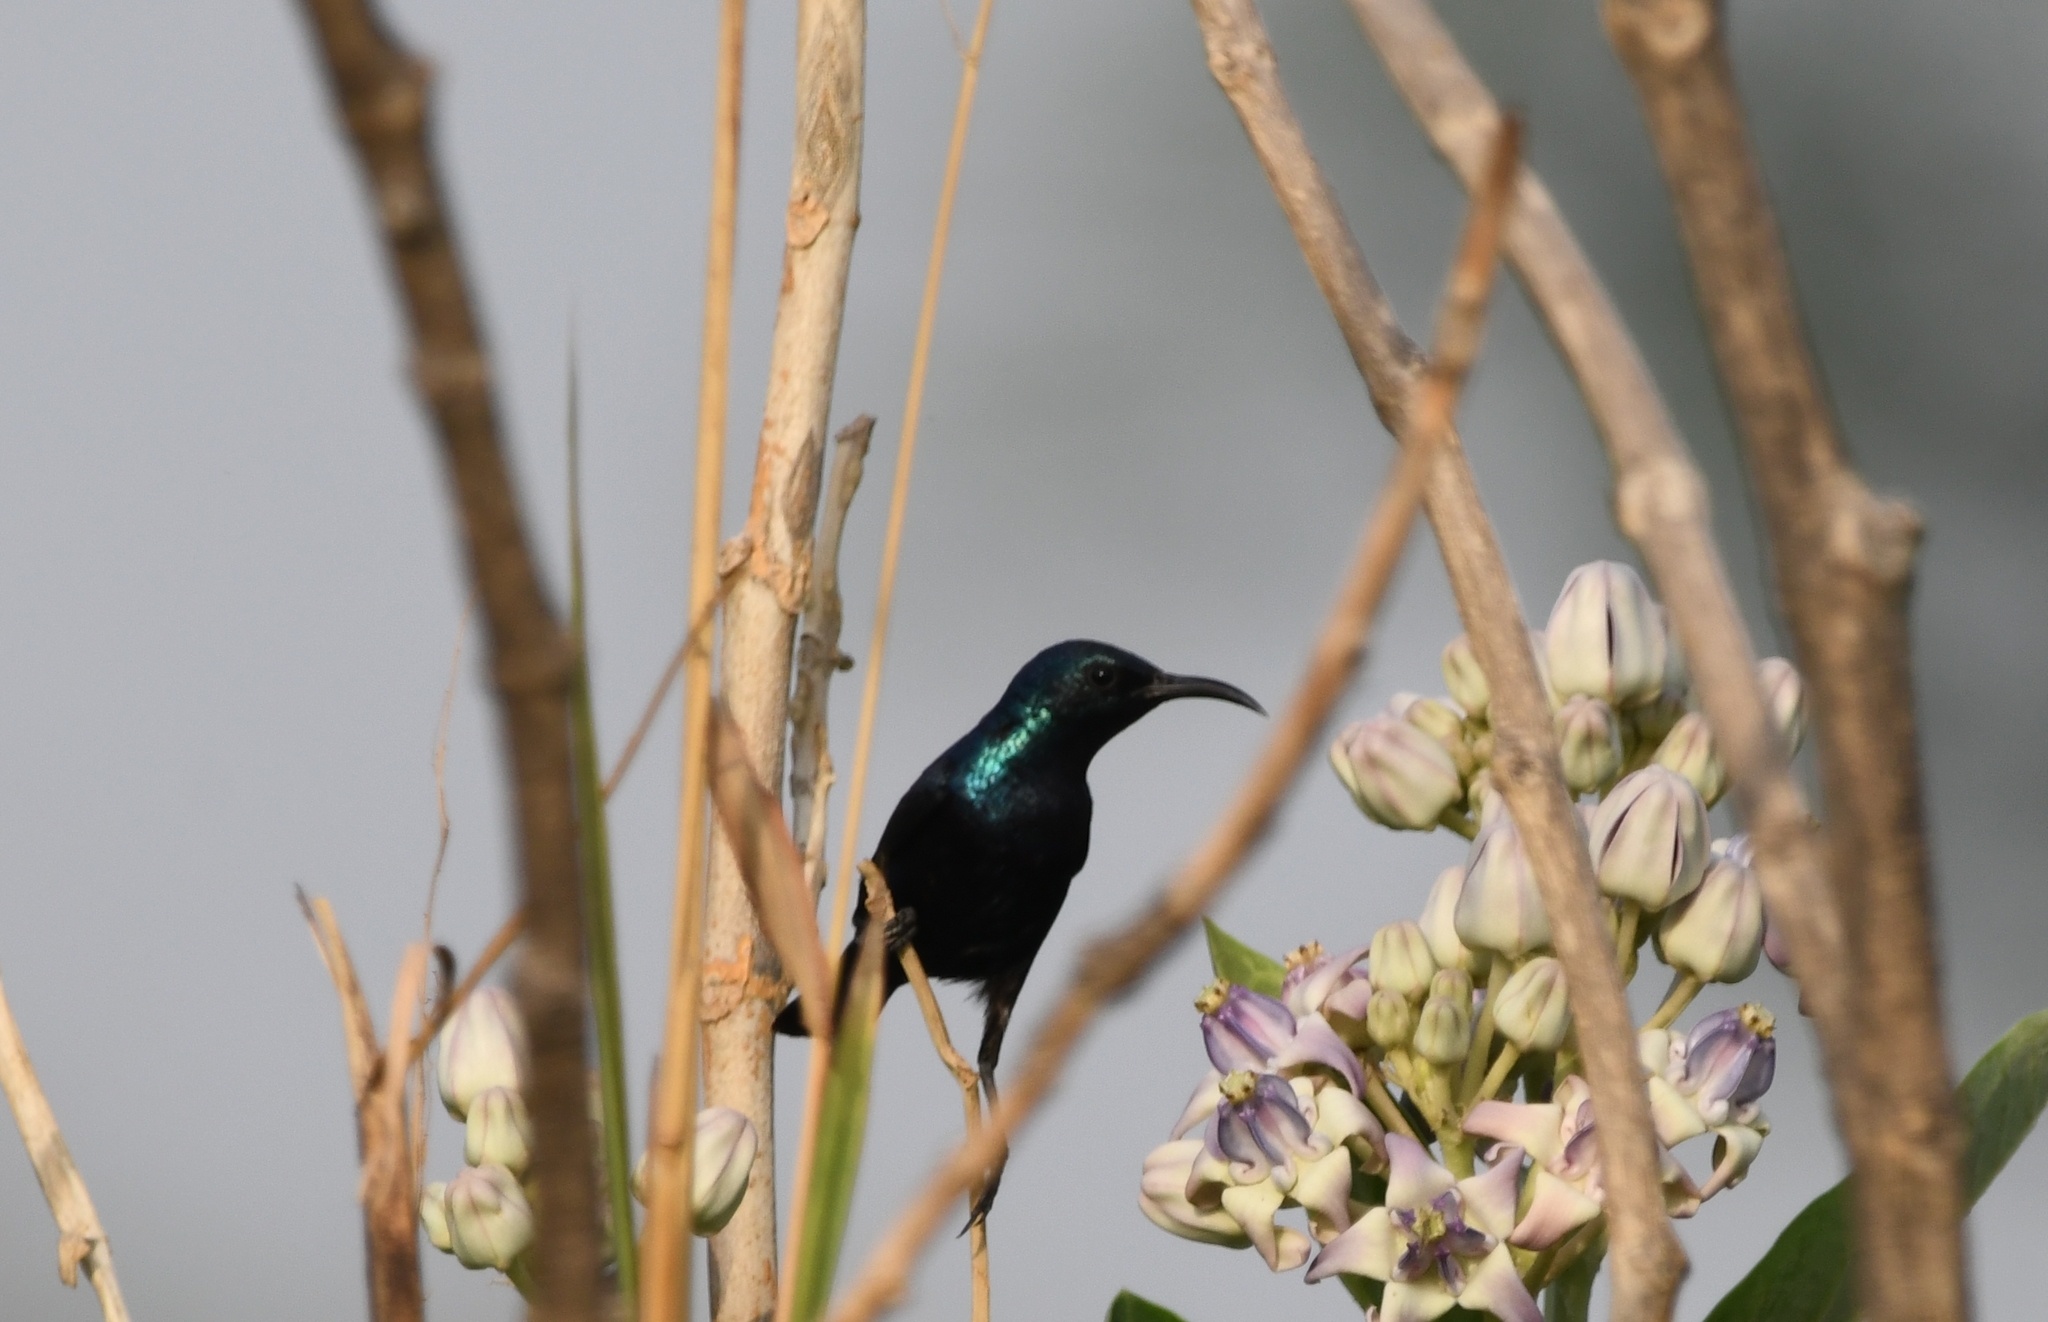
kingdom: Animalia
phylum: Chordata
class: Aves
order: Passeriformes
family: Nectariniidae
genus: Cinnyris
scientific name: Cinnyris asiaticus
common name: Purple sunbird
